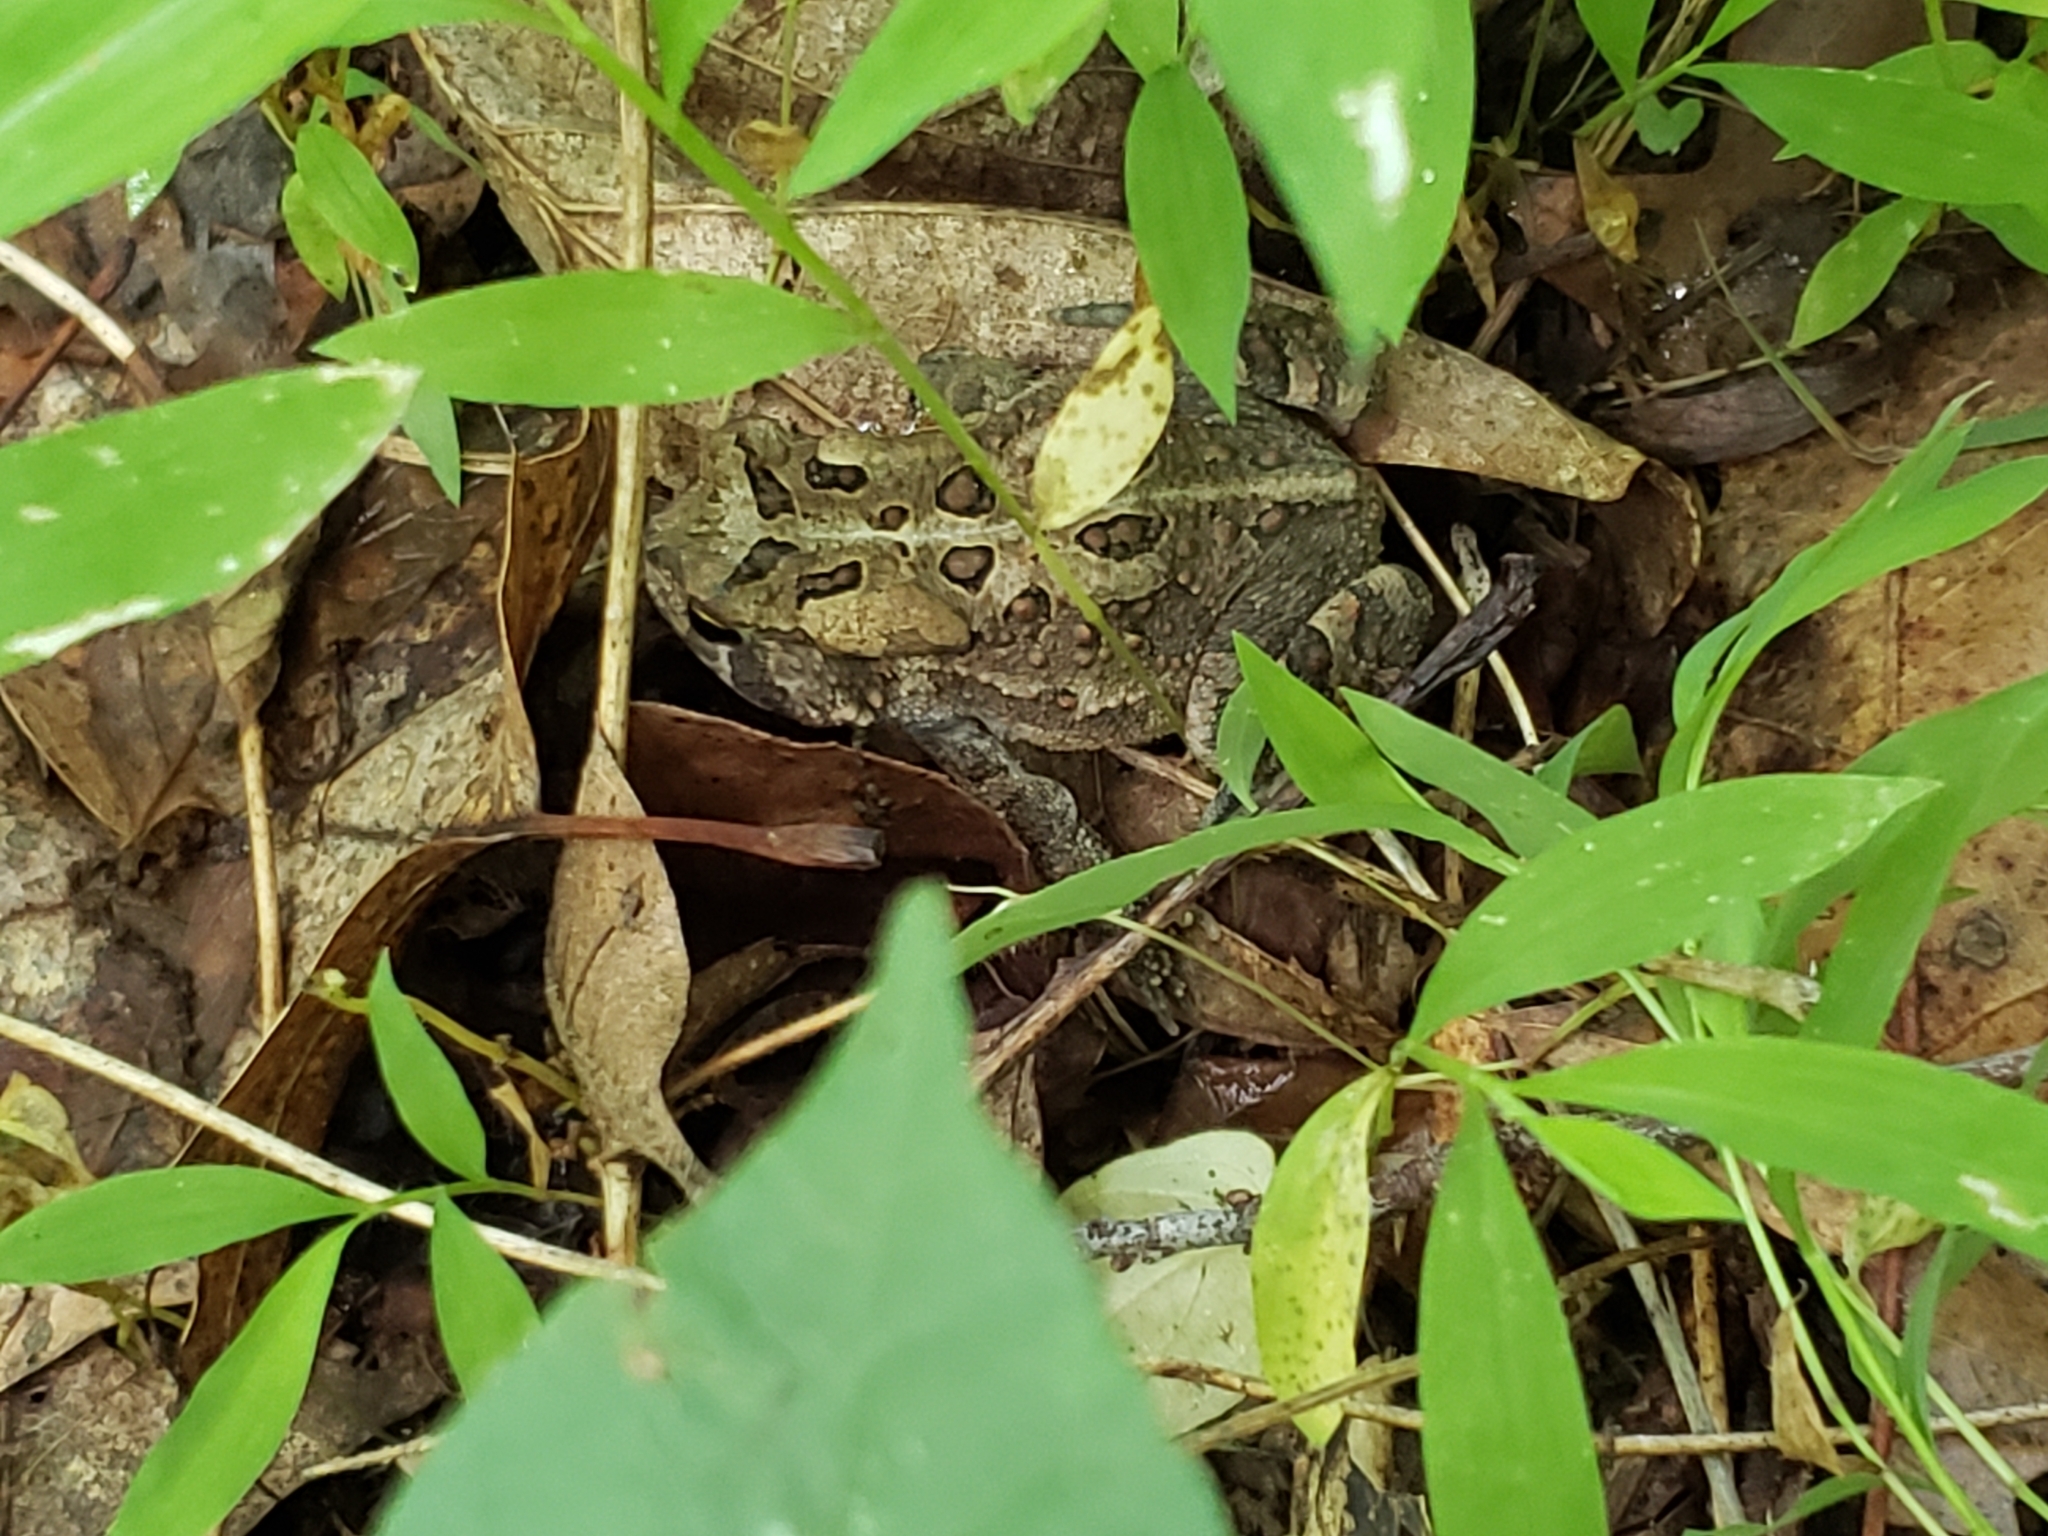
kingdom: Animalia
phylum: Chordata
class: Amphibia
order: Anura
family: Bufonidae
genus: Anaxyrus
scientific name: Anaxyrus americanus
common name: American toad
